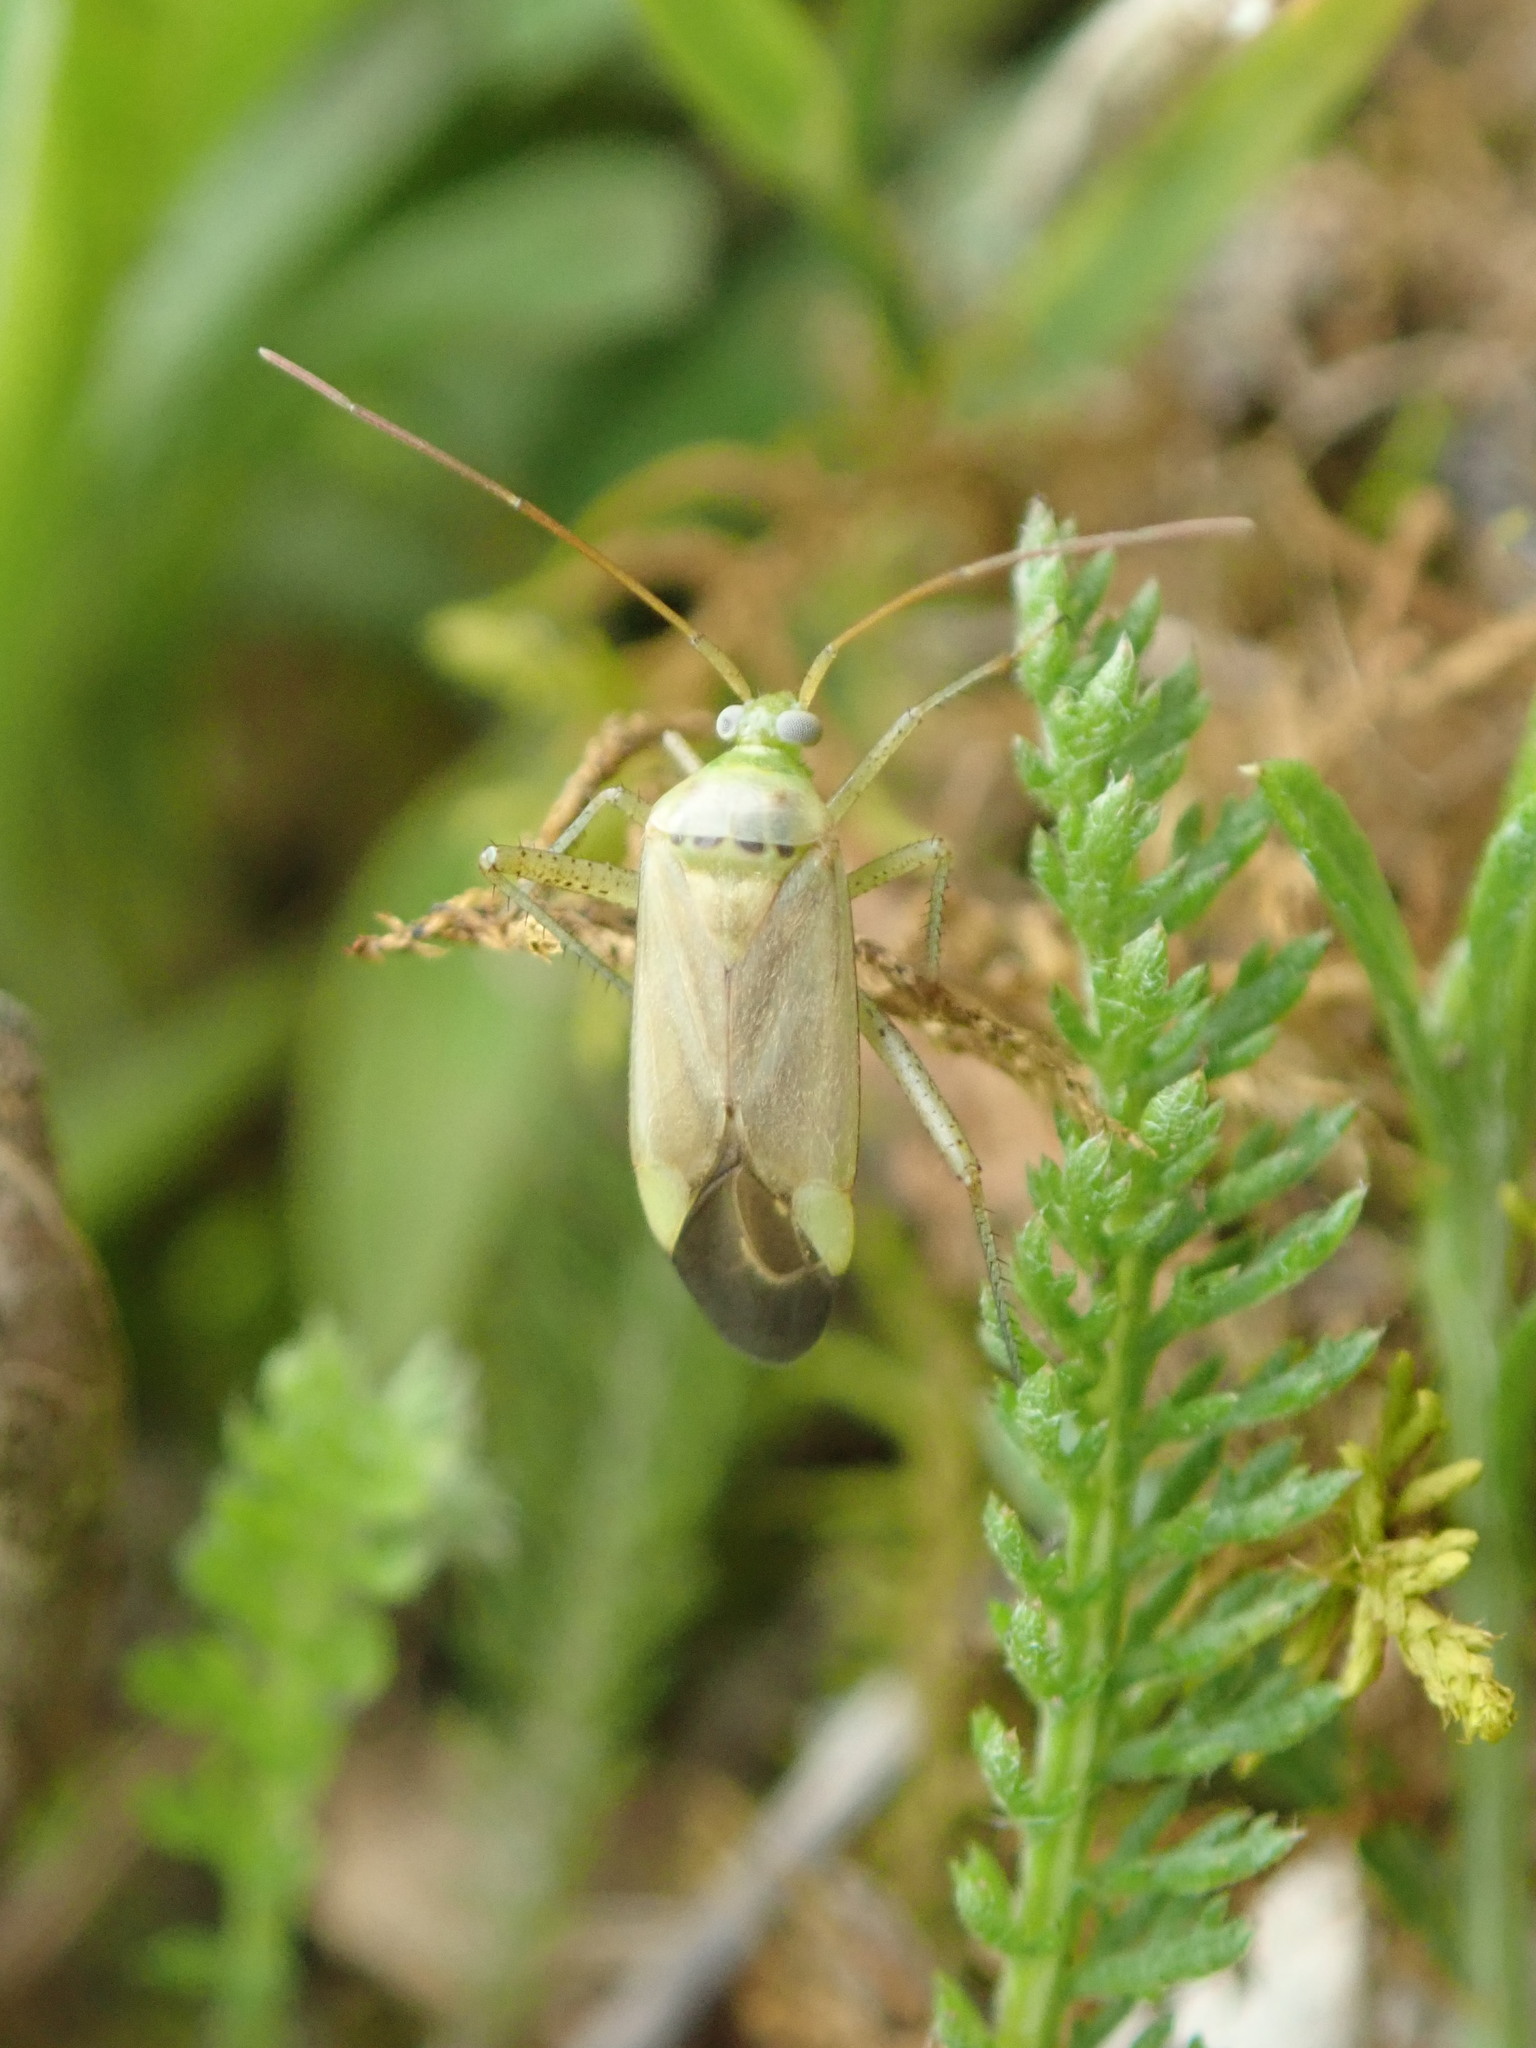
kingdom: Animalia
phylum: Arthropoda
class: Insecta
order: Hemiptera
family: Miridae
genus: Adelphocoris
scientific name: Adelphocoris lineolatus
